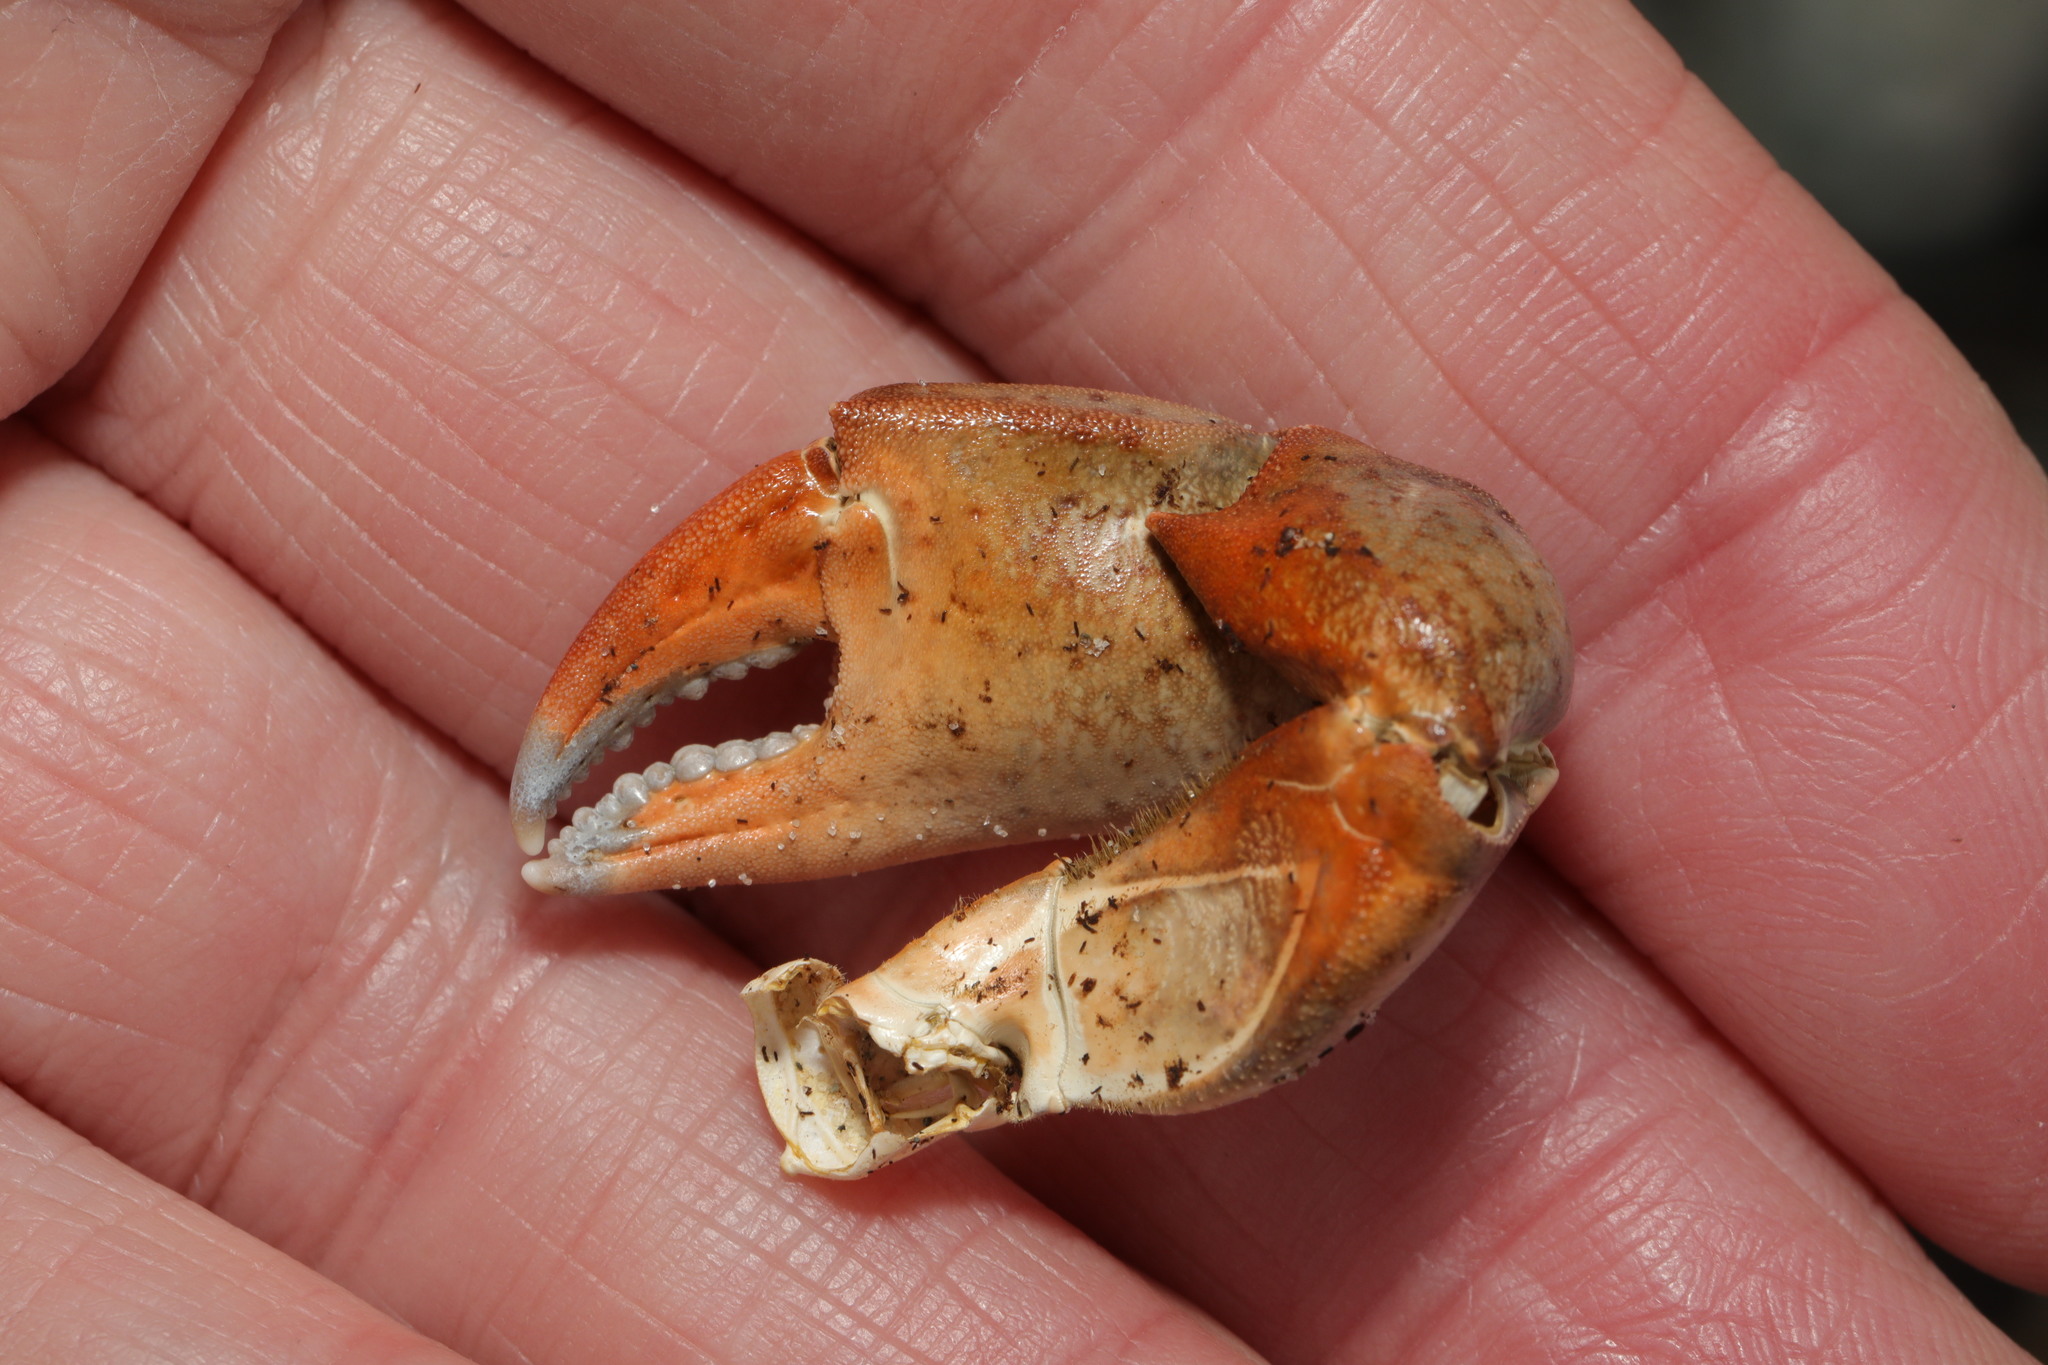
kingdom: Animalia
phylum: Arthropoda
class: Malacostraca
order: Decapoda
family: Carcinidae
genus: Carcinus
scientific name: Carcinus maenas
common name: European green crab
